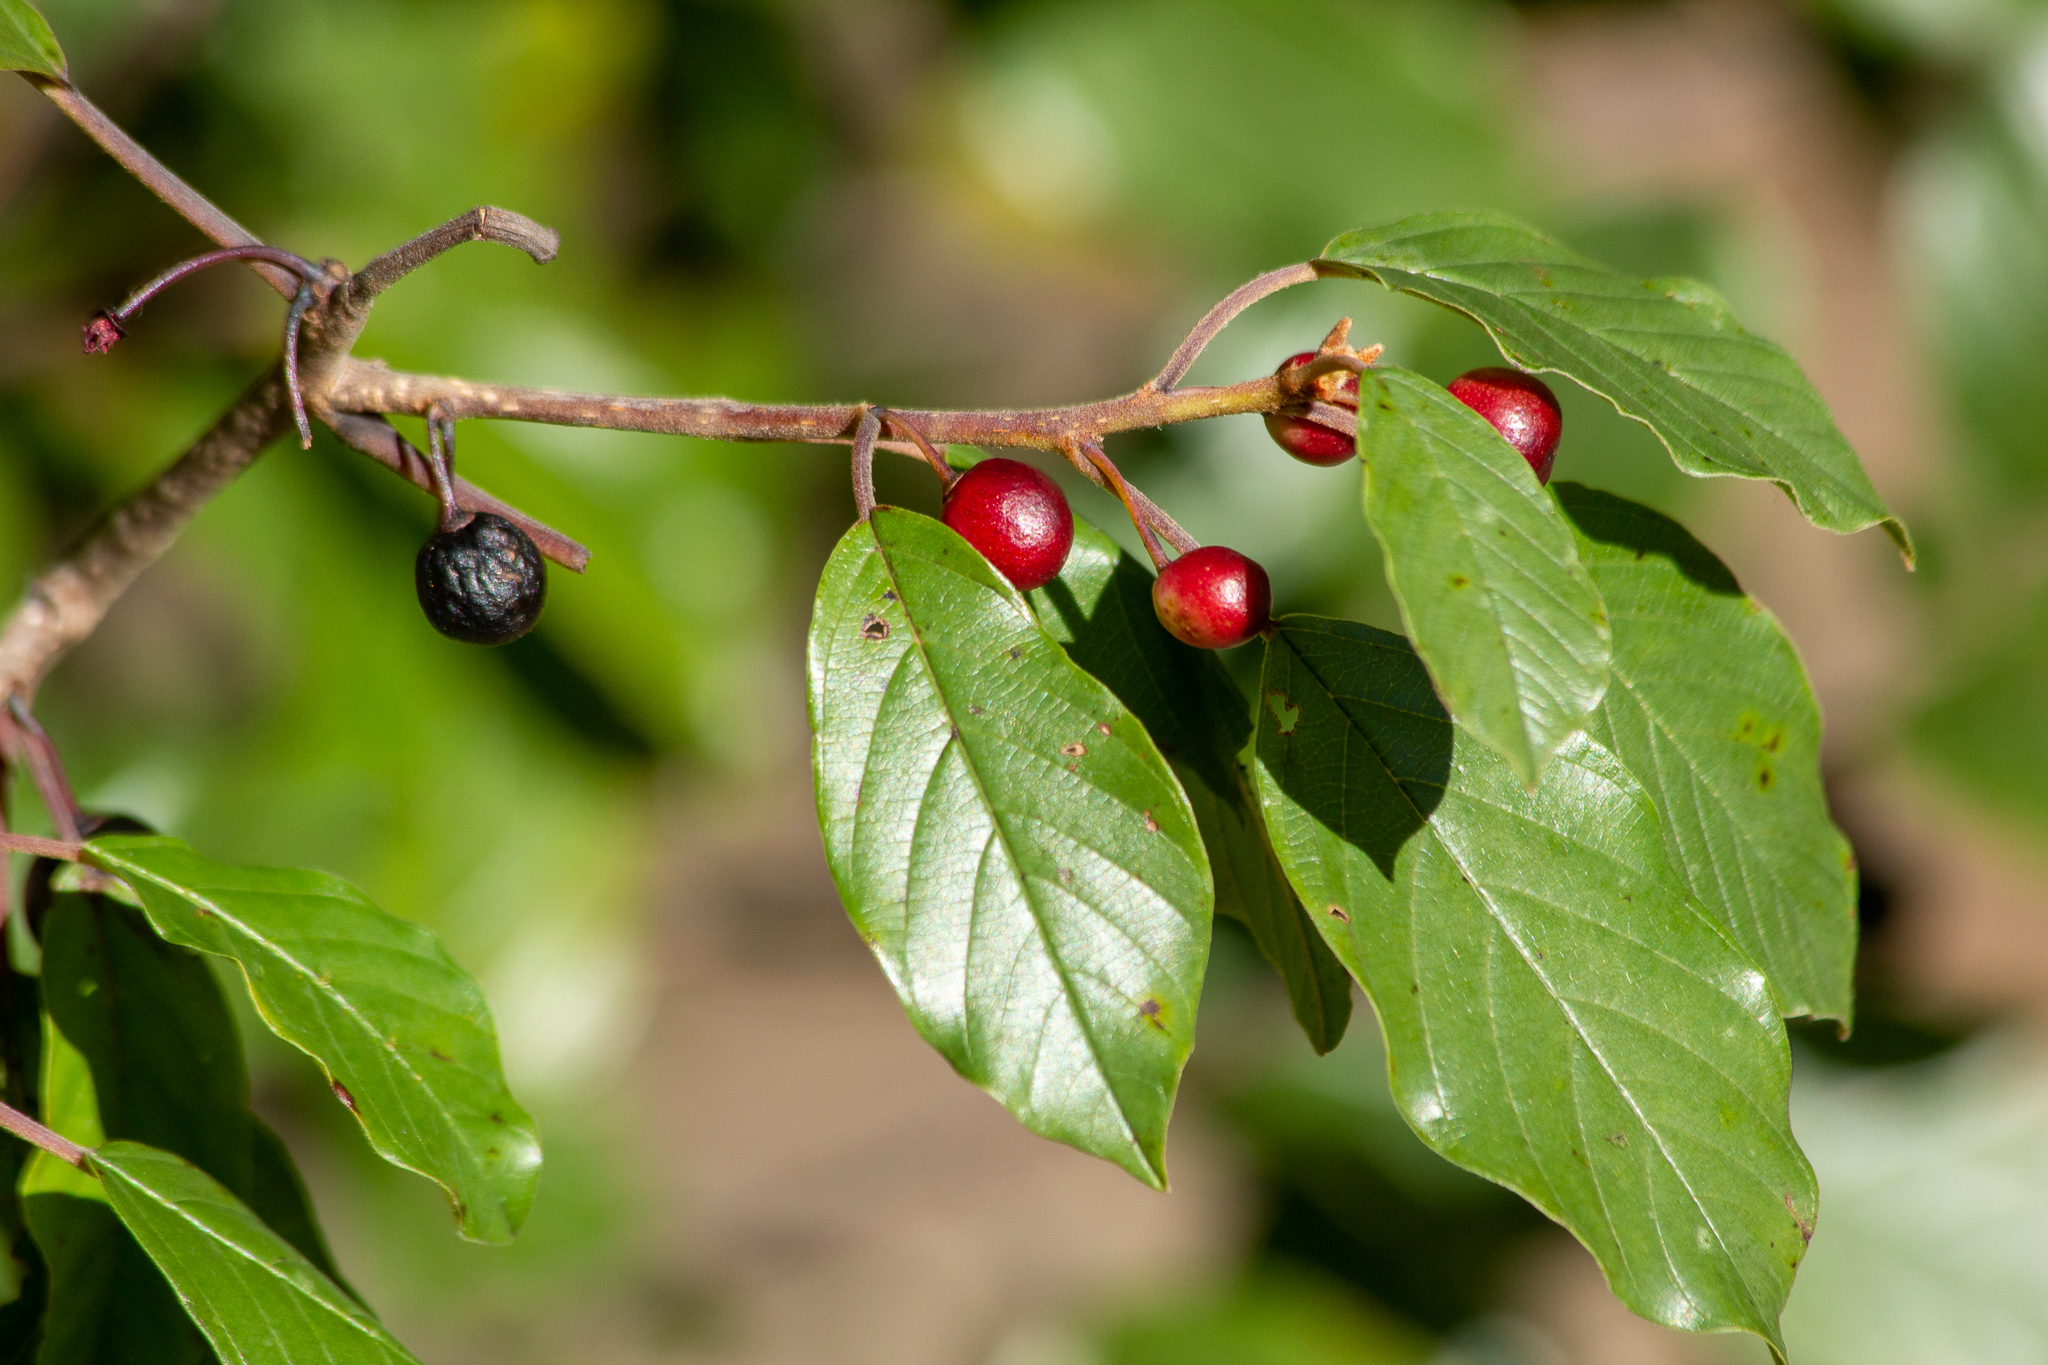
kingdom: Plantae
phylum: Tracheophyta
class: Magnoliopsida
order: Rosales
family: Rhamnaceae
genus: Frangula
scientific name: Frangula alnus
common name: Alder buckthorn
